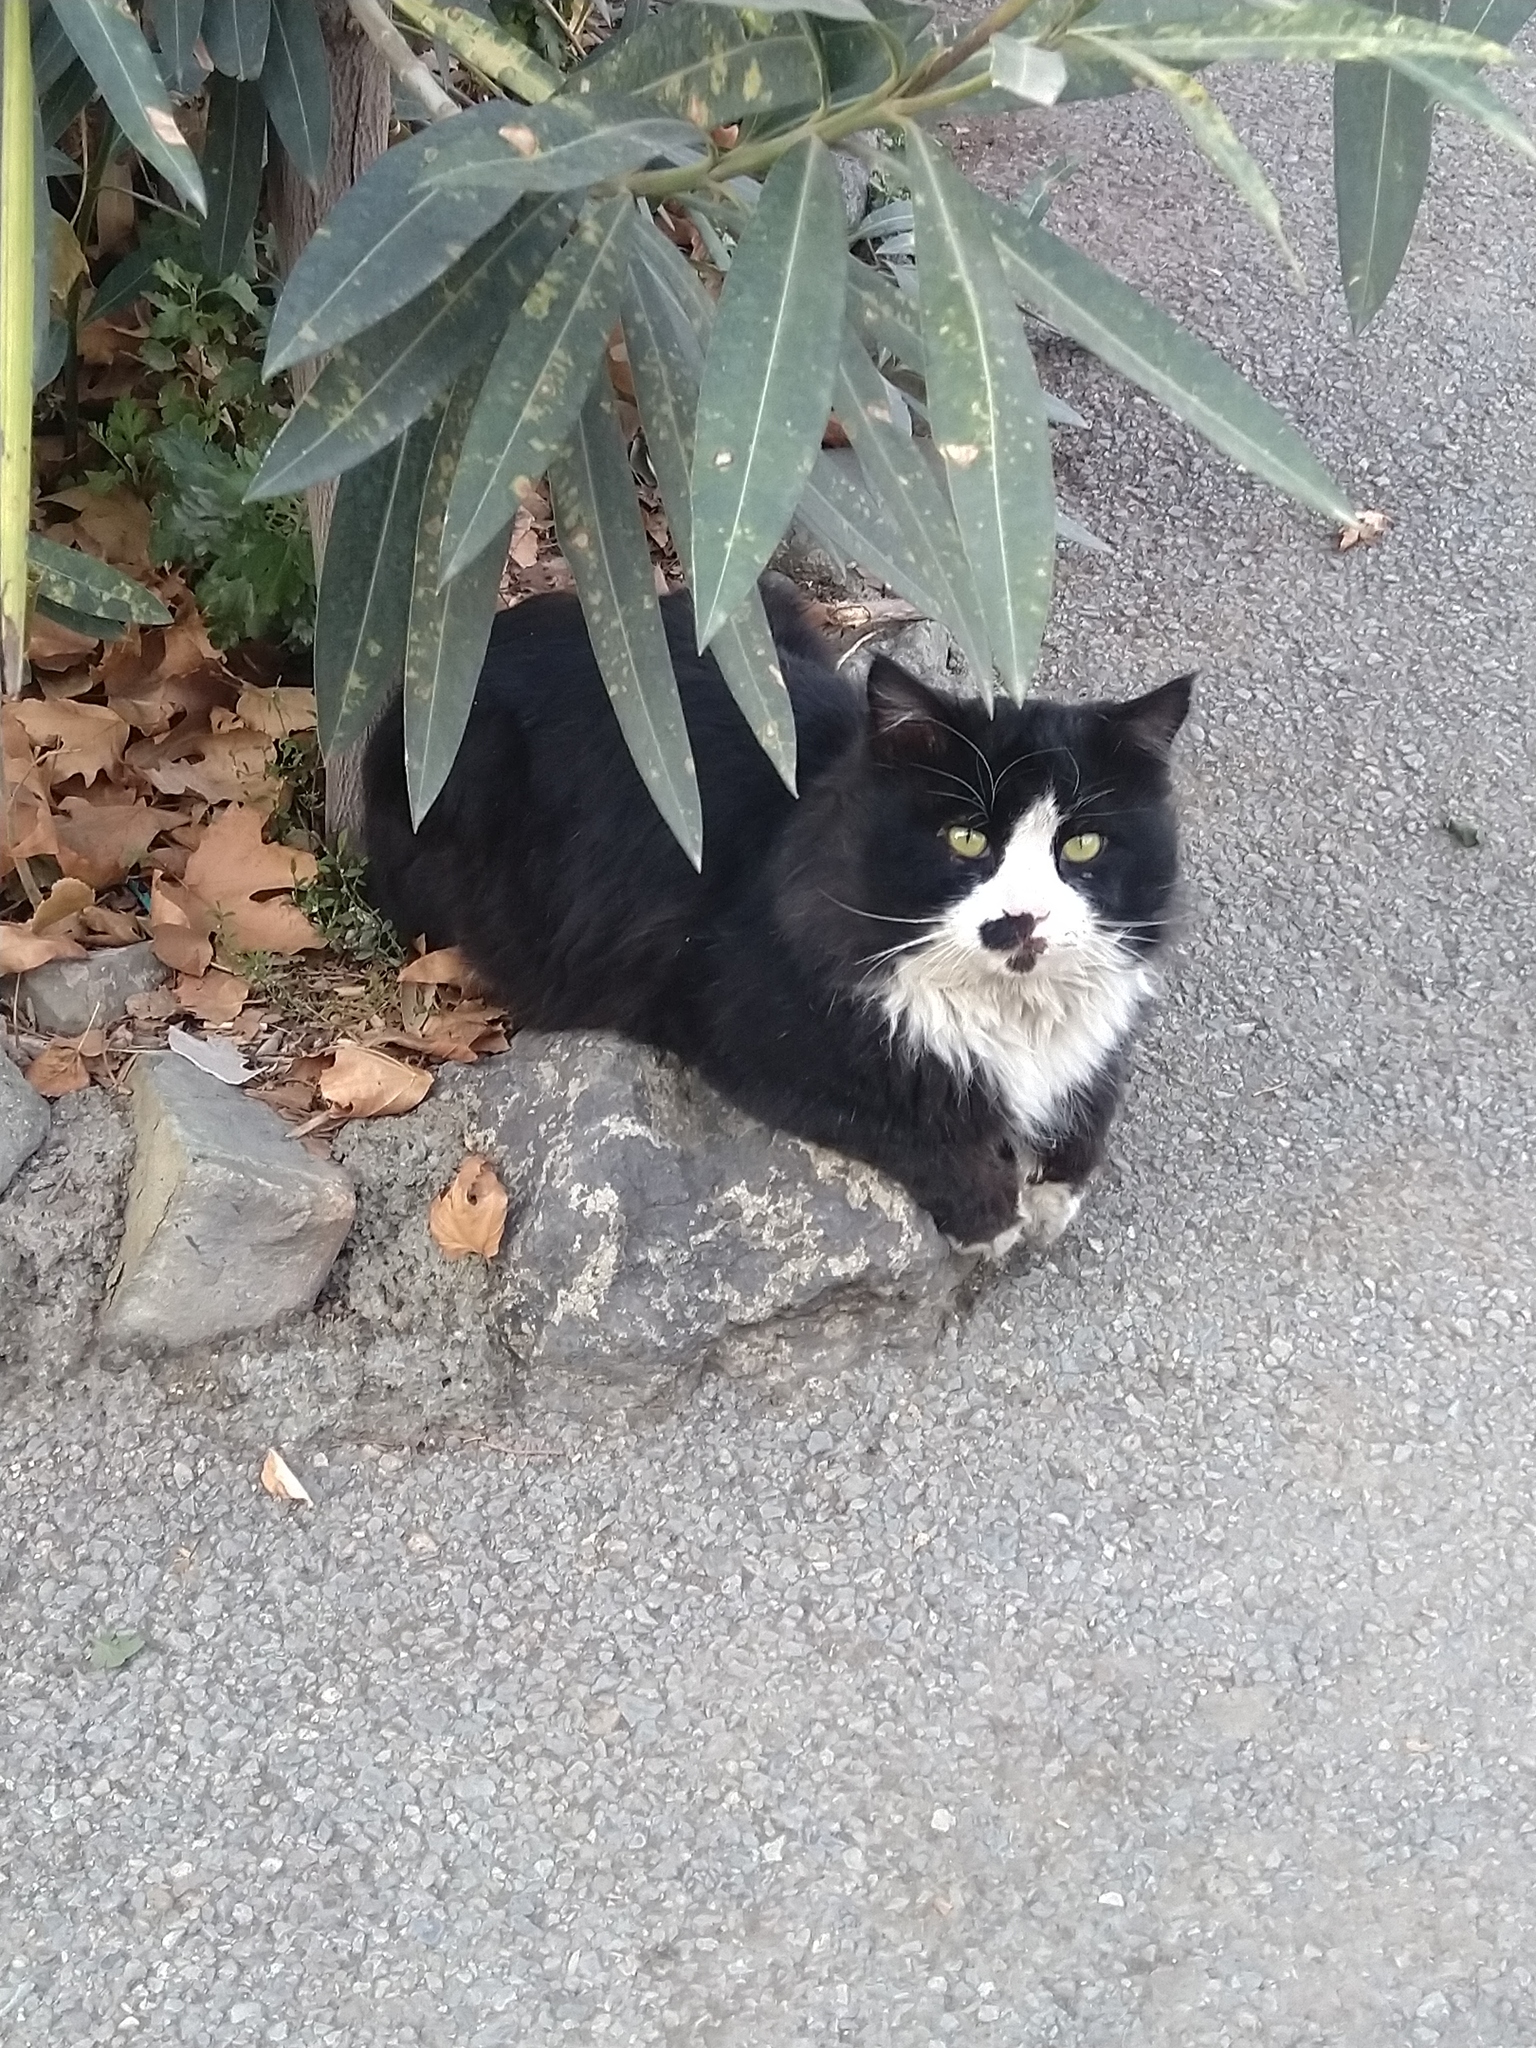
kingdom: Animalia
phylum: Chordata
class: Mammalia
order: Carnivora
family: Felidae
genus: Felis
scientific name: Felis catus
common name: Domestic cat
